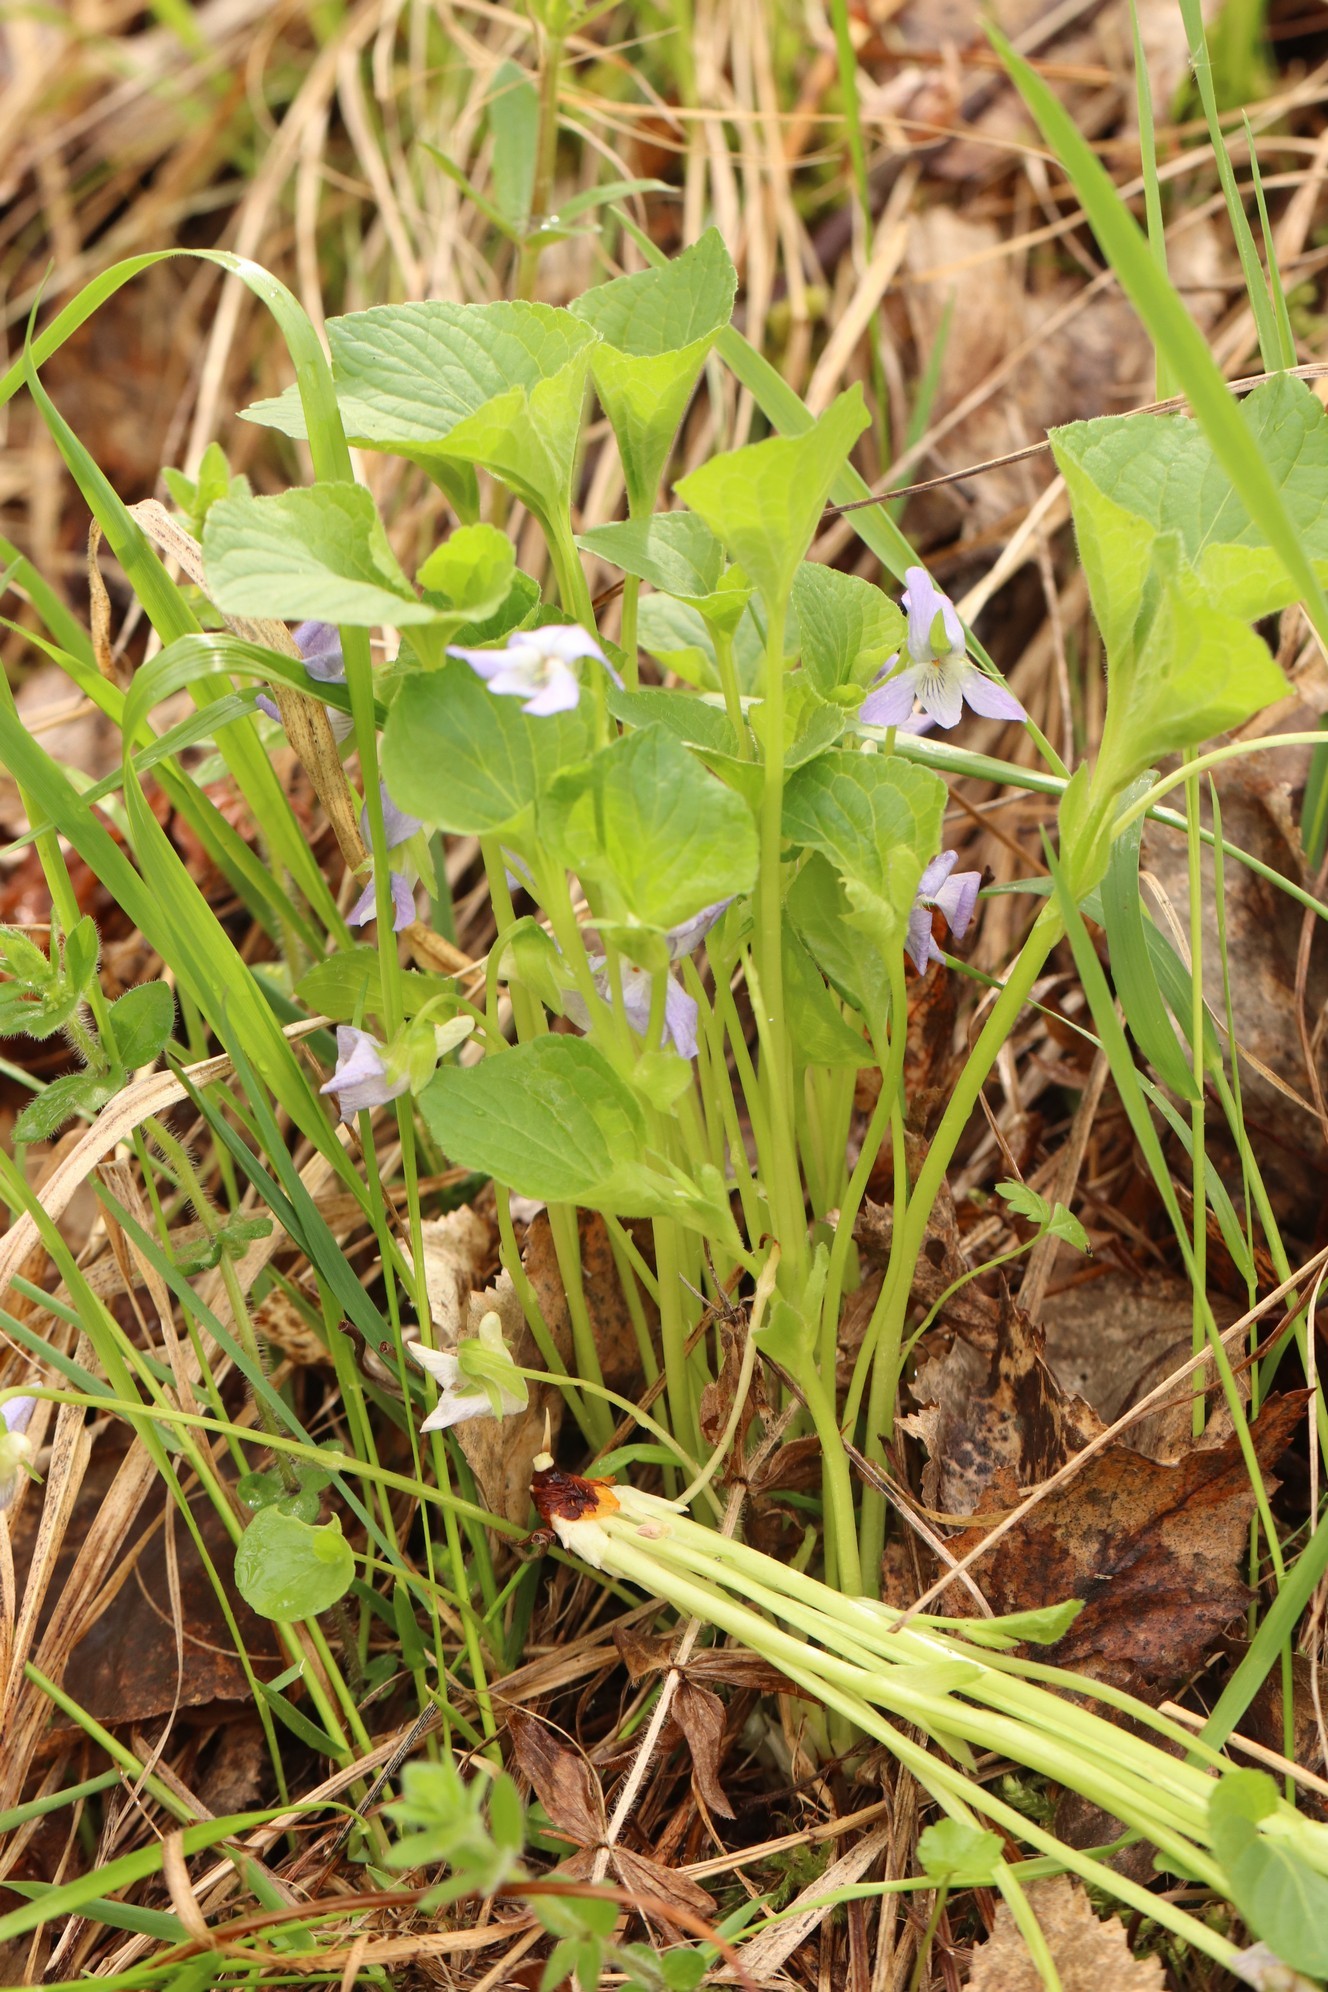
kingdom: Plantae
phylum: Tracheophyta
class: Magnoliopsida
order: Malpighiales
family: Violaceae
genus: Viola
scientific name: Viola mirabilis
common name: Wonder violet
